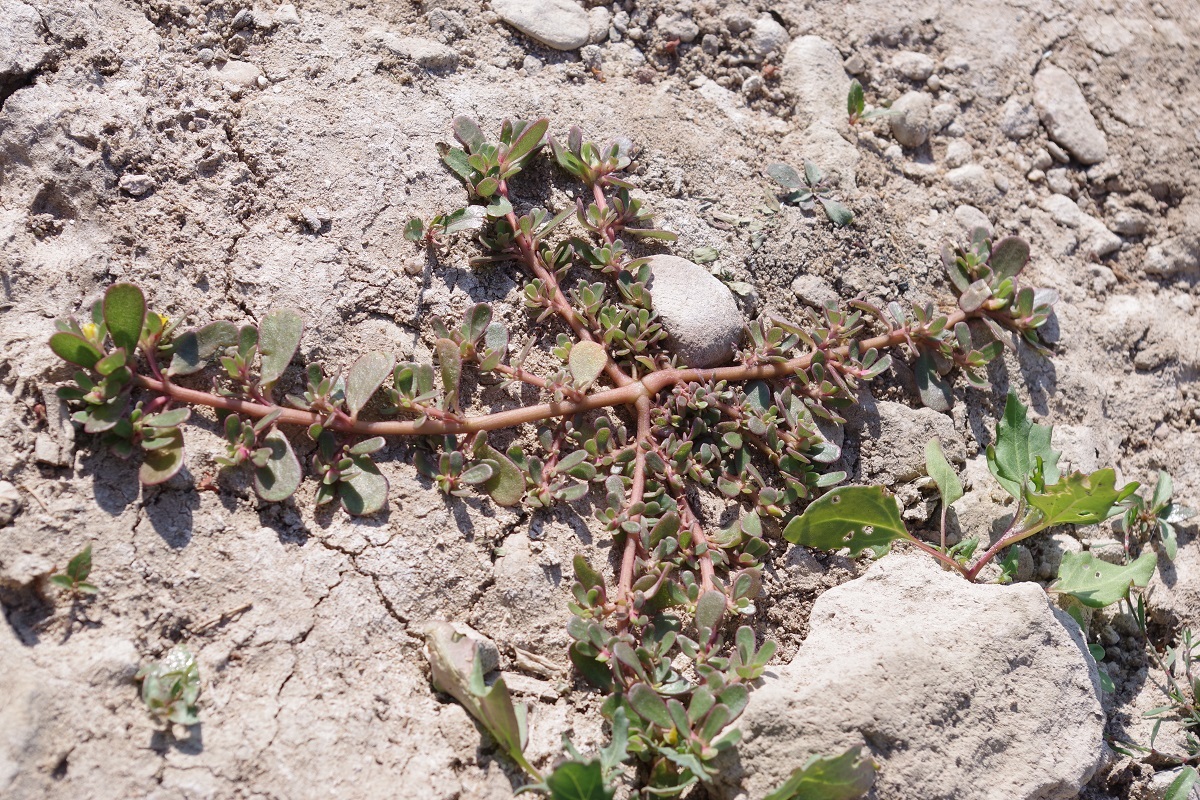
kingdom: Plantae
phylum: Tracheophyta
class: Magnoliopsida
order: Caryophyllales
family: Portulacaceae
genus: Portulaca
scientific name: Portulaca oleracea
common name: Common purslane
